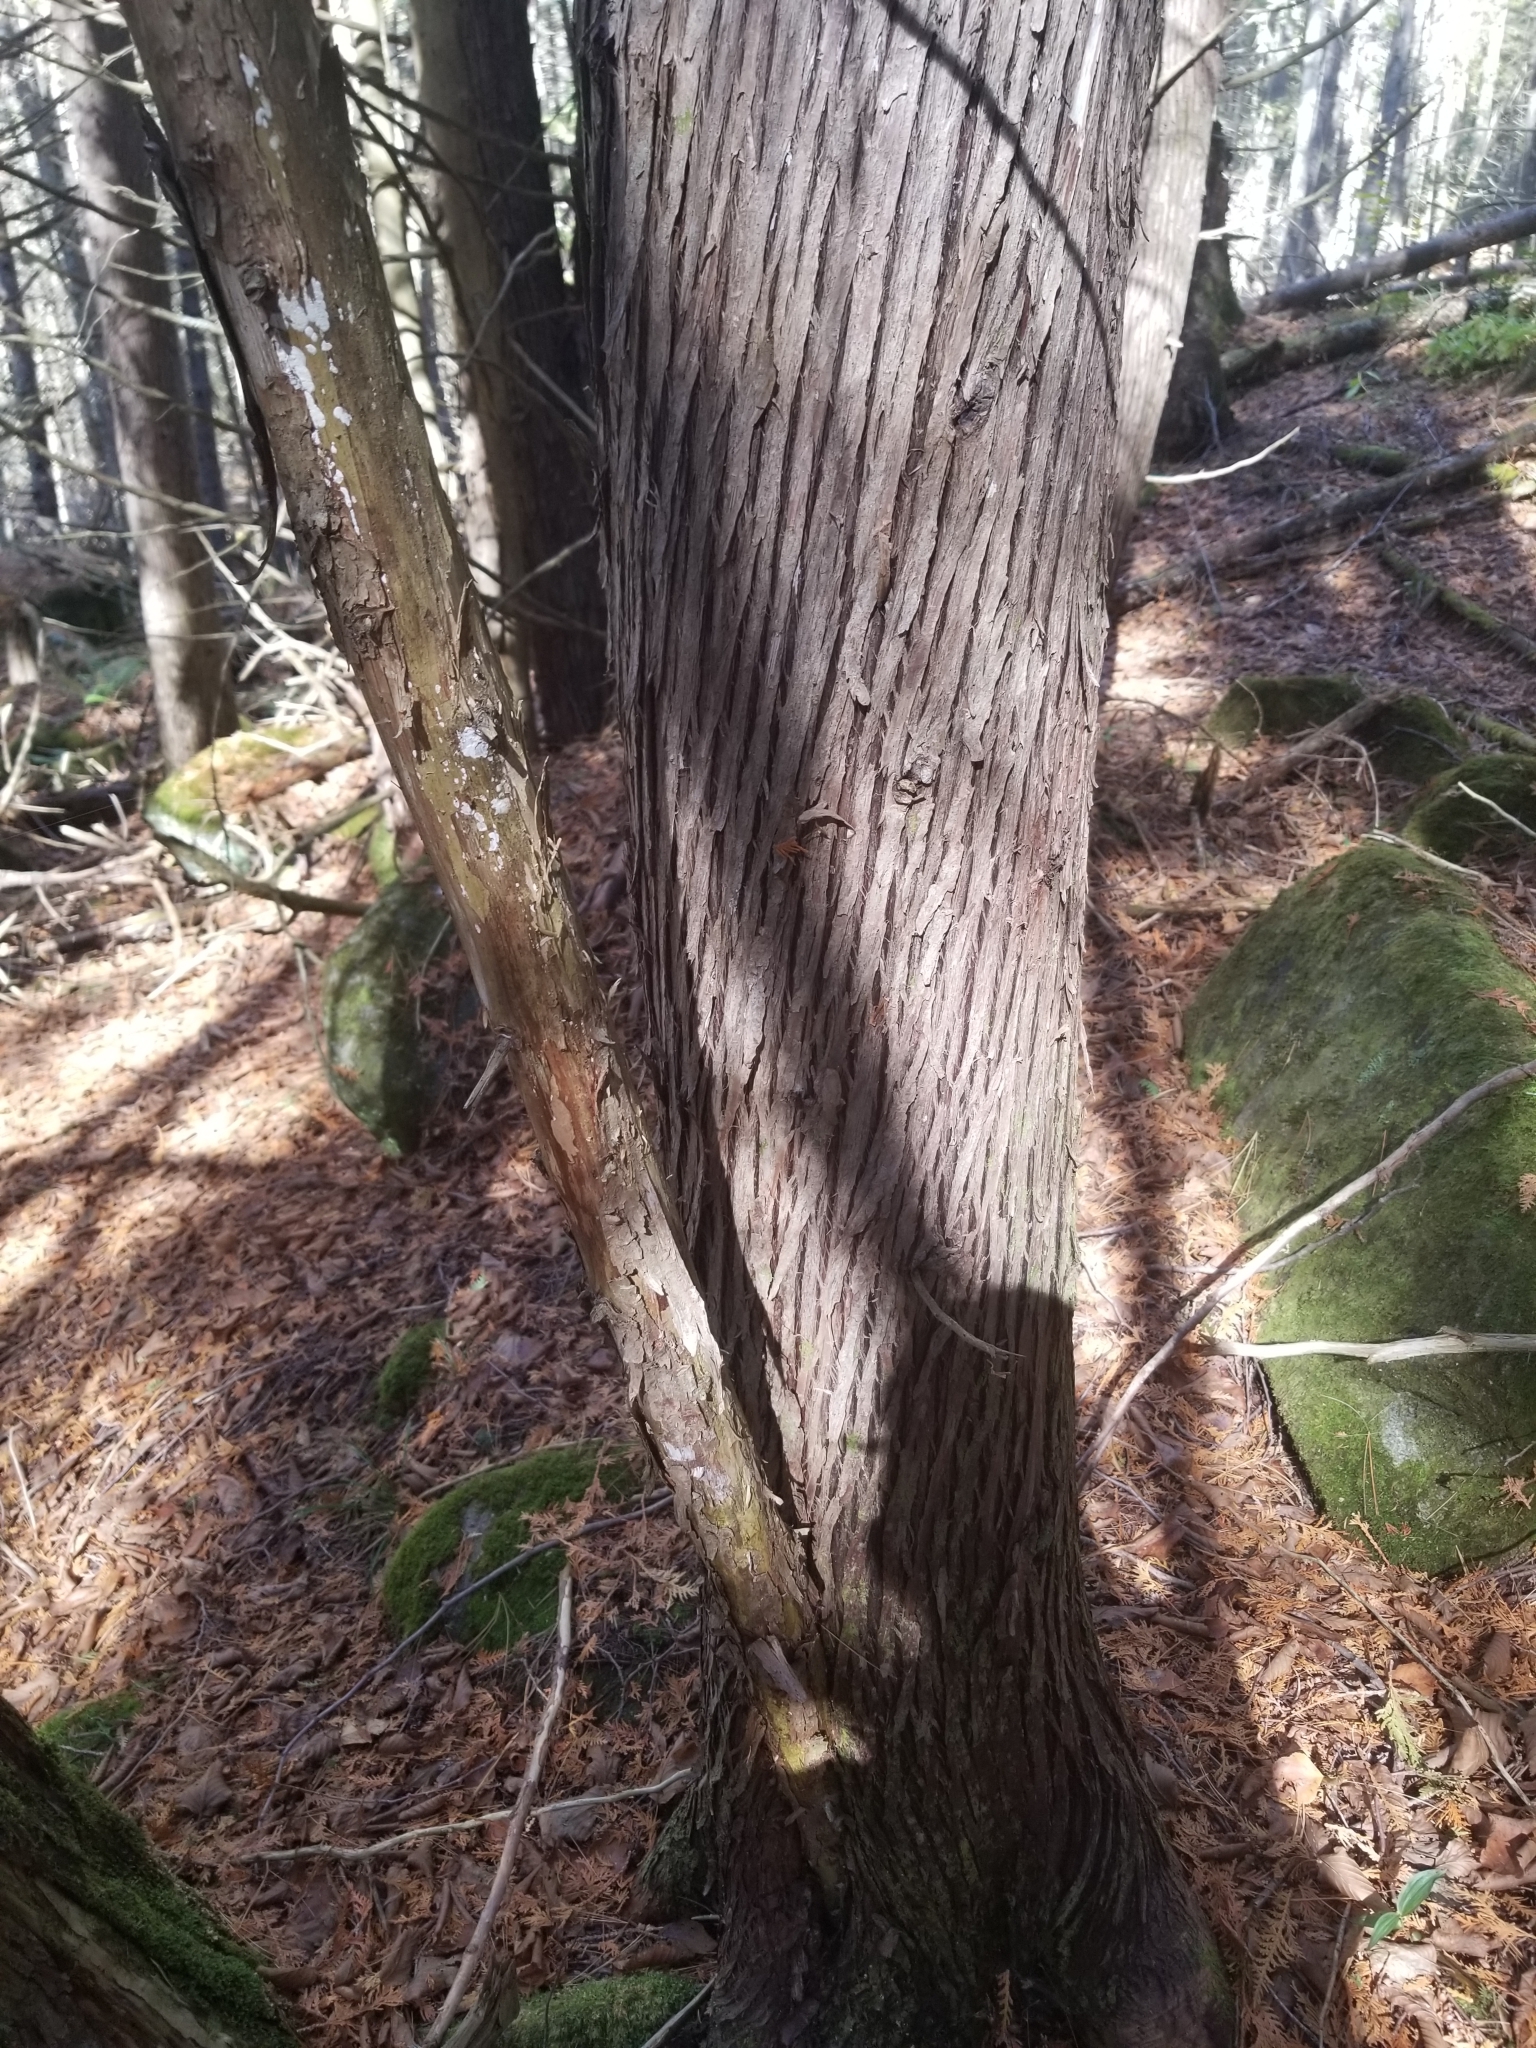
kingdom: Plantae
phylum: Tracheophyta
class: Pinopsida
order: Pinales
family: Cupressaceae
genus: Thuja
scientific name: Thuja occidentalis
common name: Northern white-cedar
